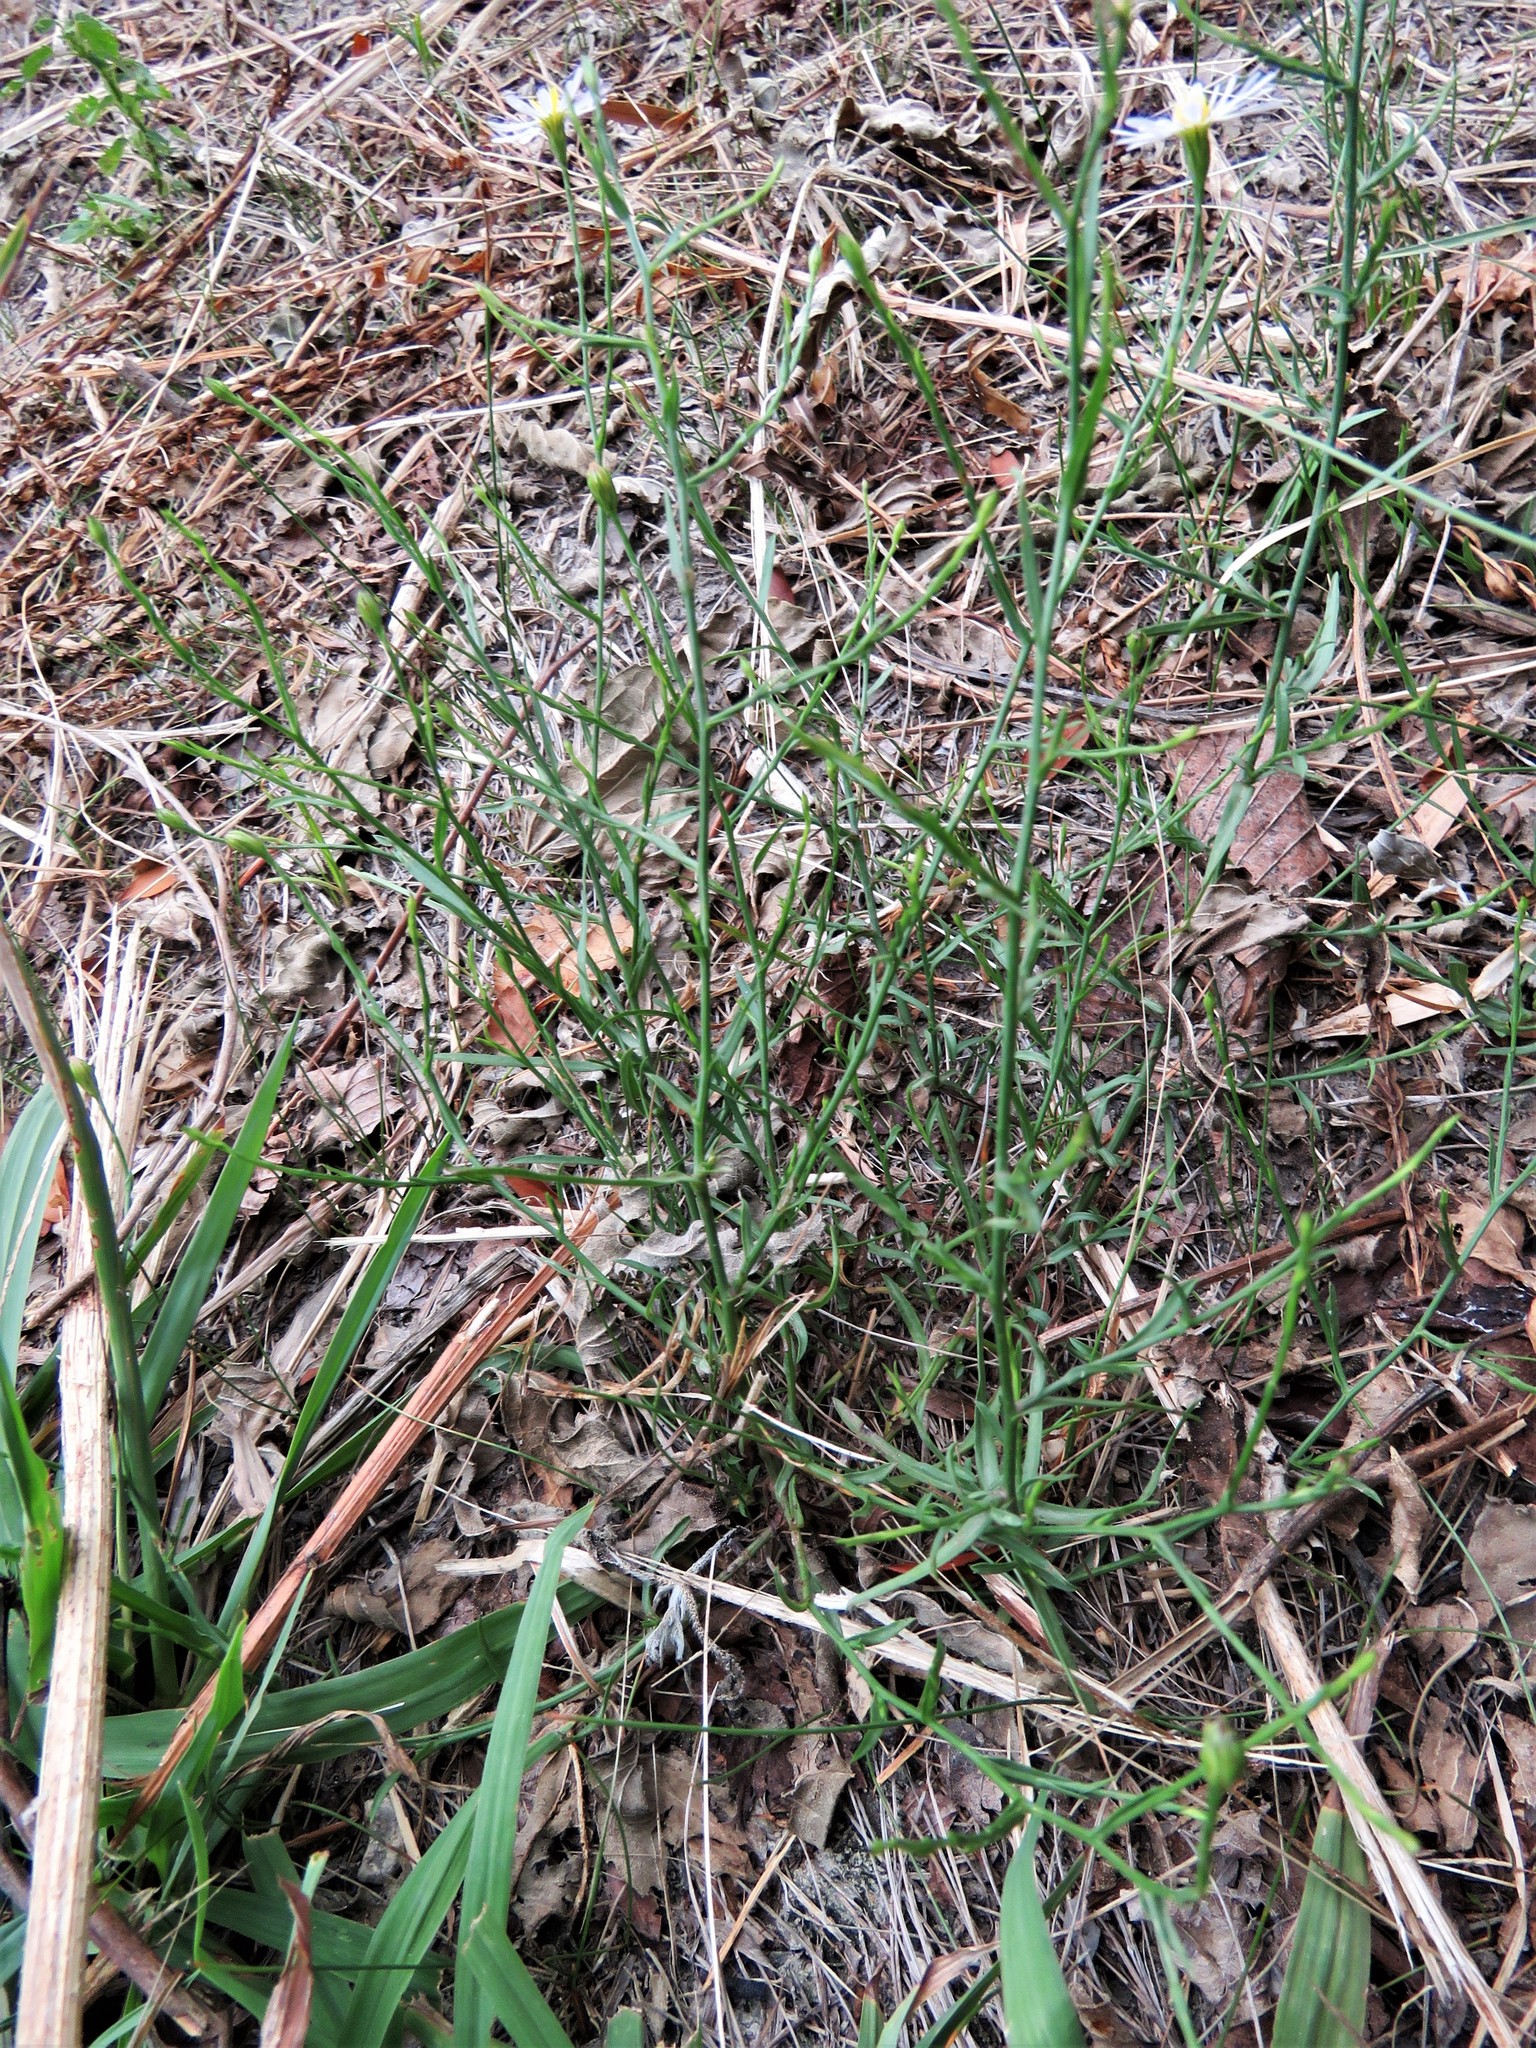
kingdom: Plantae
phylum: Tracheophyta
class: Magnoliopsida
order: Asterales
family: Asteraceae
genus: Symphyotrichum
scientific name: Symphyotrichum divaricatum
